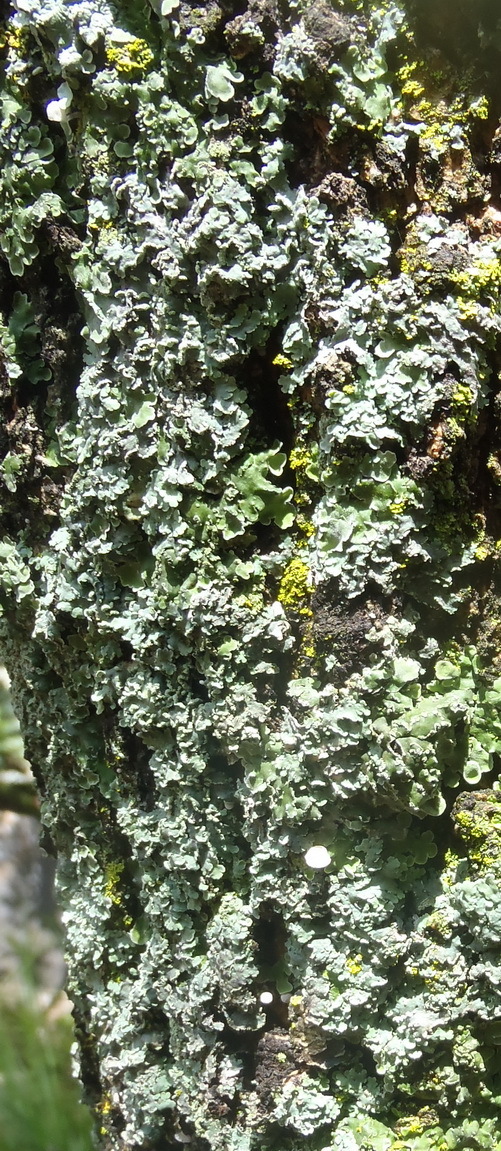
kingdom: Fungi
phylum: Ascomycota
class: Lecanoromycetes
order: Caliciales
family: Physciaceae
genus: Poeltonia
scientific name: Poeltonia grisea
